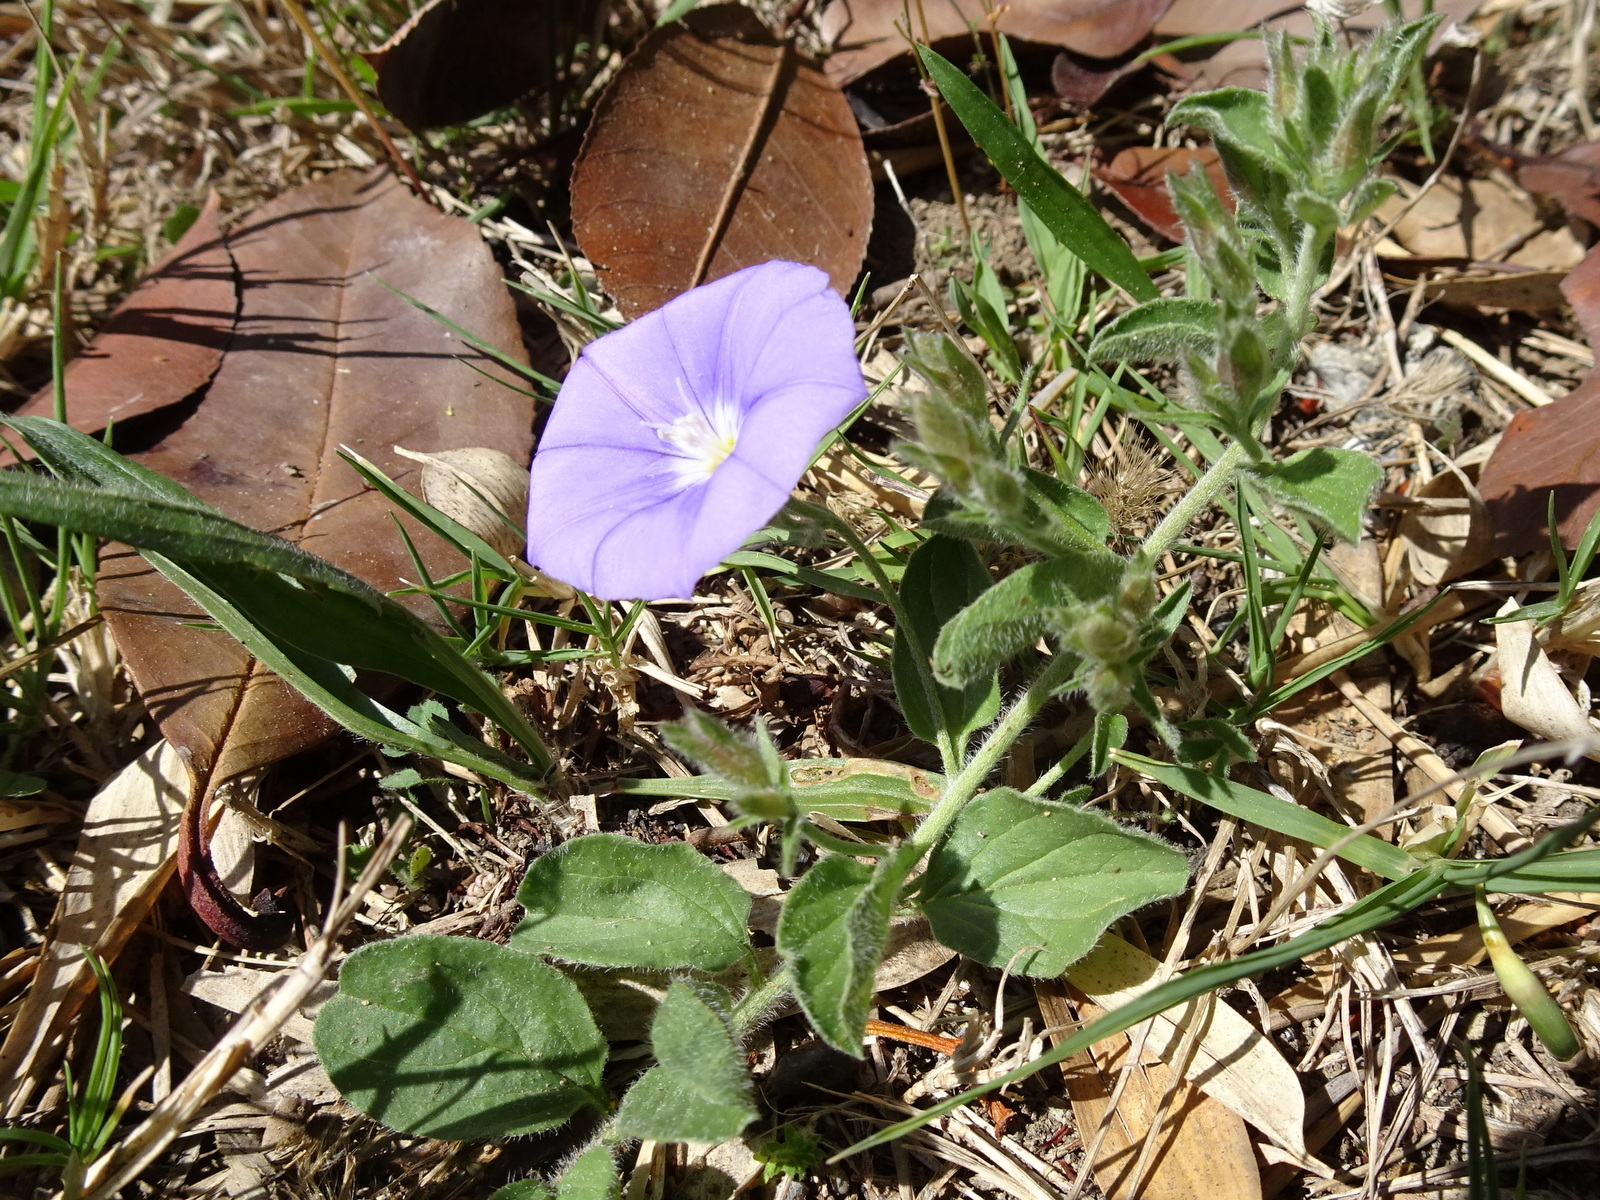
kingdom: Plantae
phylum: Tracheophyta
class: Magnoliopsida
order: Solanales
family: Convolvulaceae
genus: Convolvulus
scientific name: Convolvulus sabatius
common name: Ground blue-convolvulus
